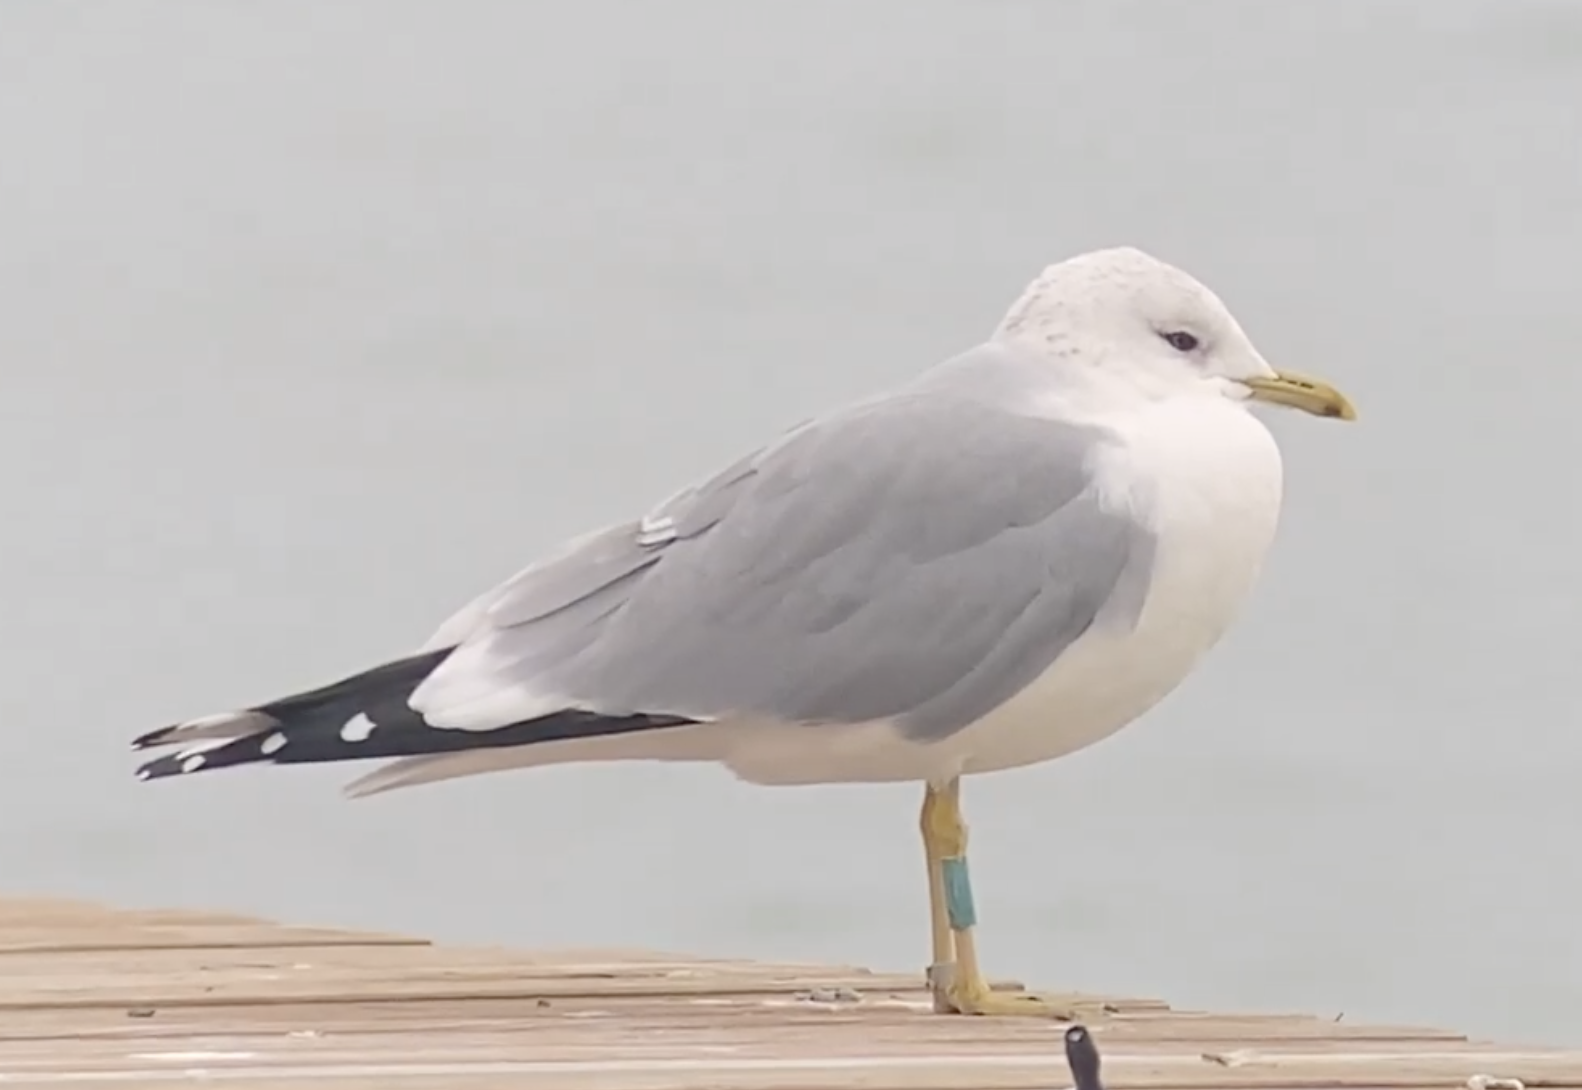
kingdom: Animalia
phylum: Chordata
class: Aves
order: Charadriiformes
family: Laridae
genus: Larus
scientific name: Larus canus
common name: Mew gull
